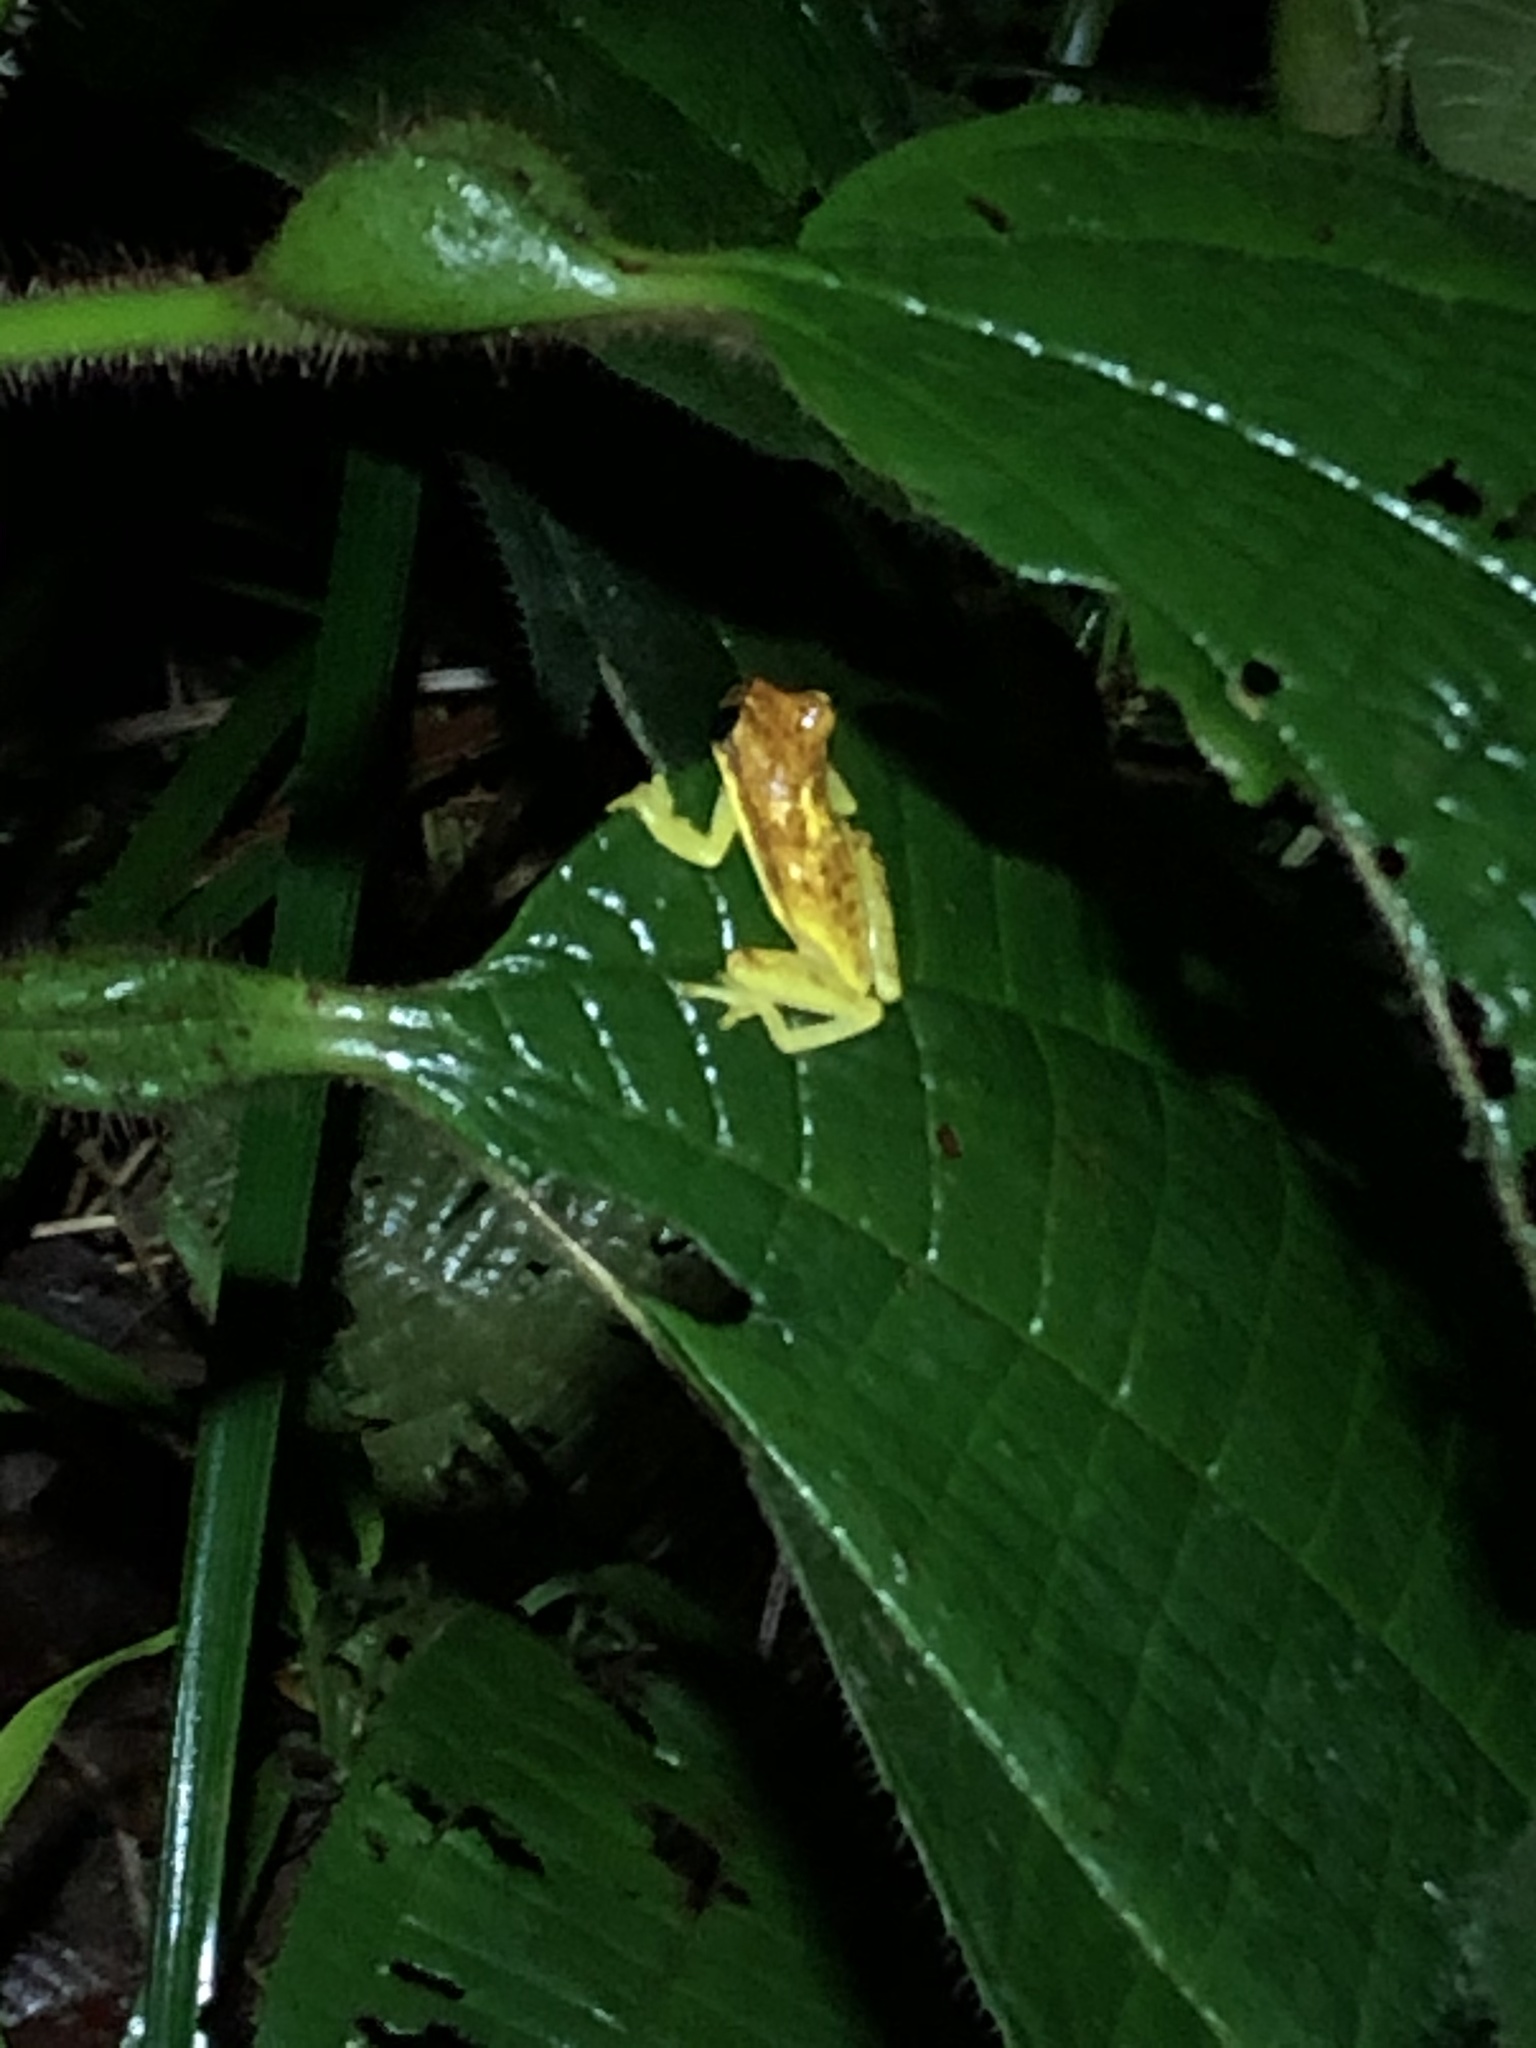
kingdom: Animalia
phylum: Chordata
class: Amphibia
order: Anura
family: Hylidae
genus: Dendropsophus
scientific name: Dendropsophus rhodopeplus
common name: Red-skirted treefrog
